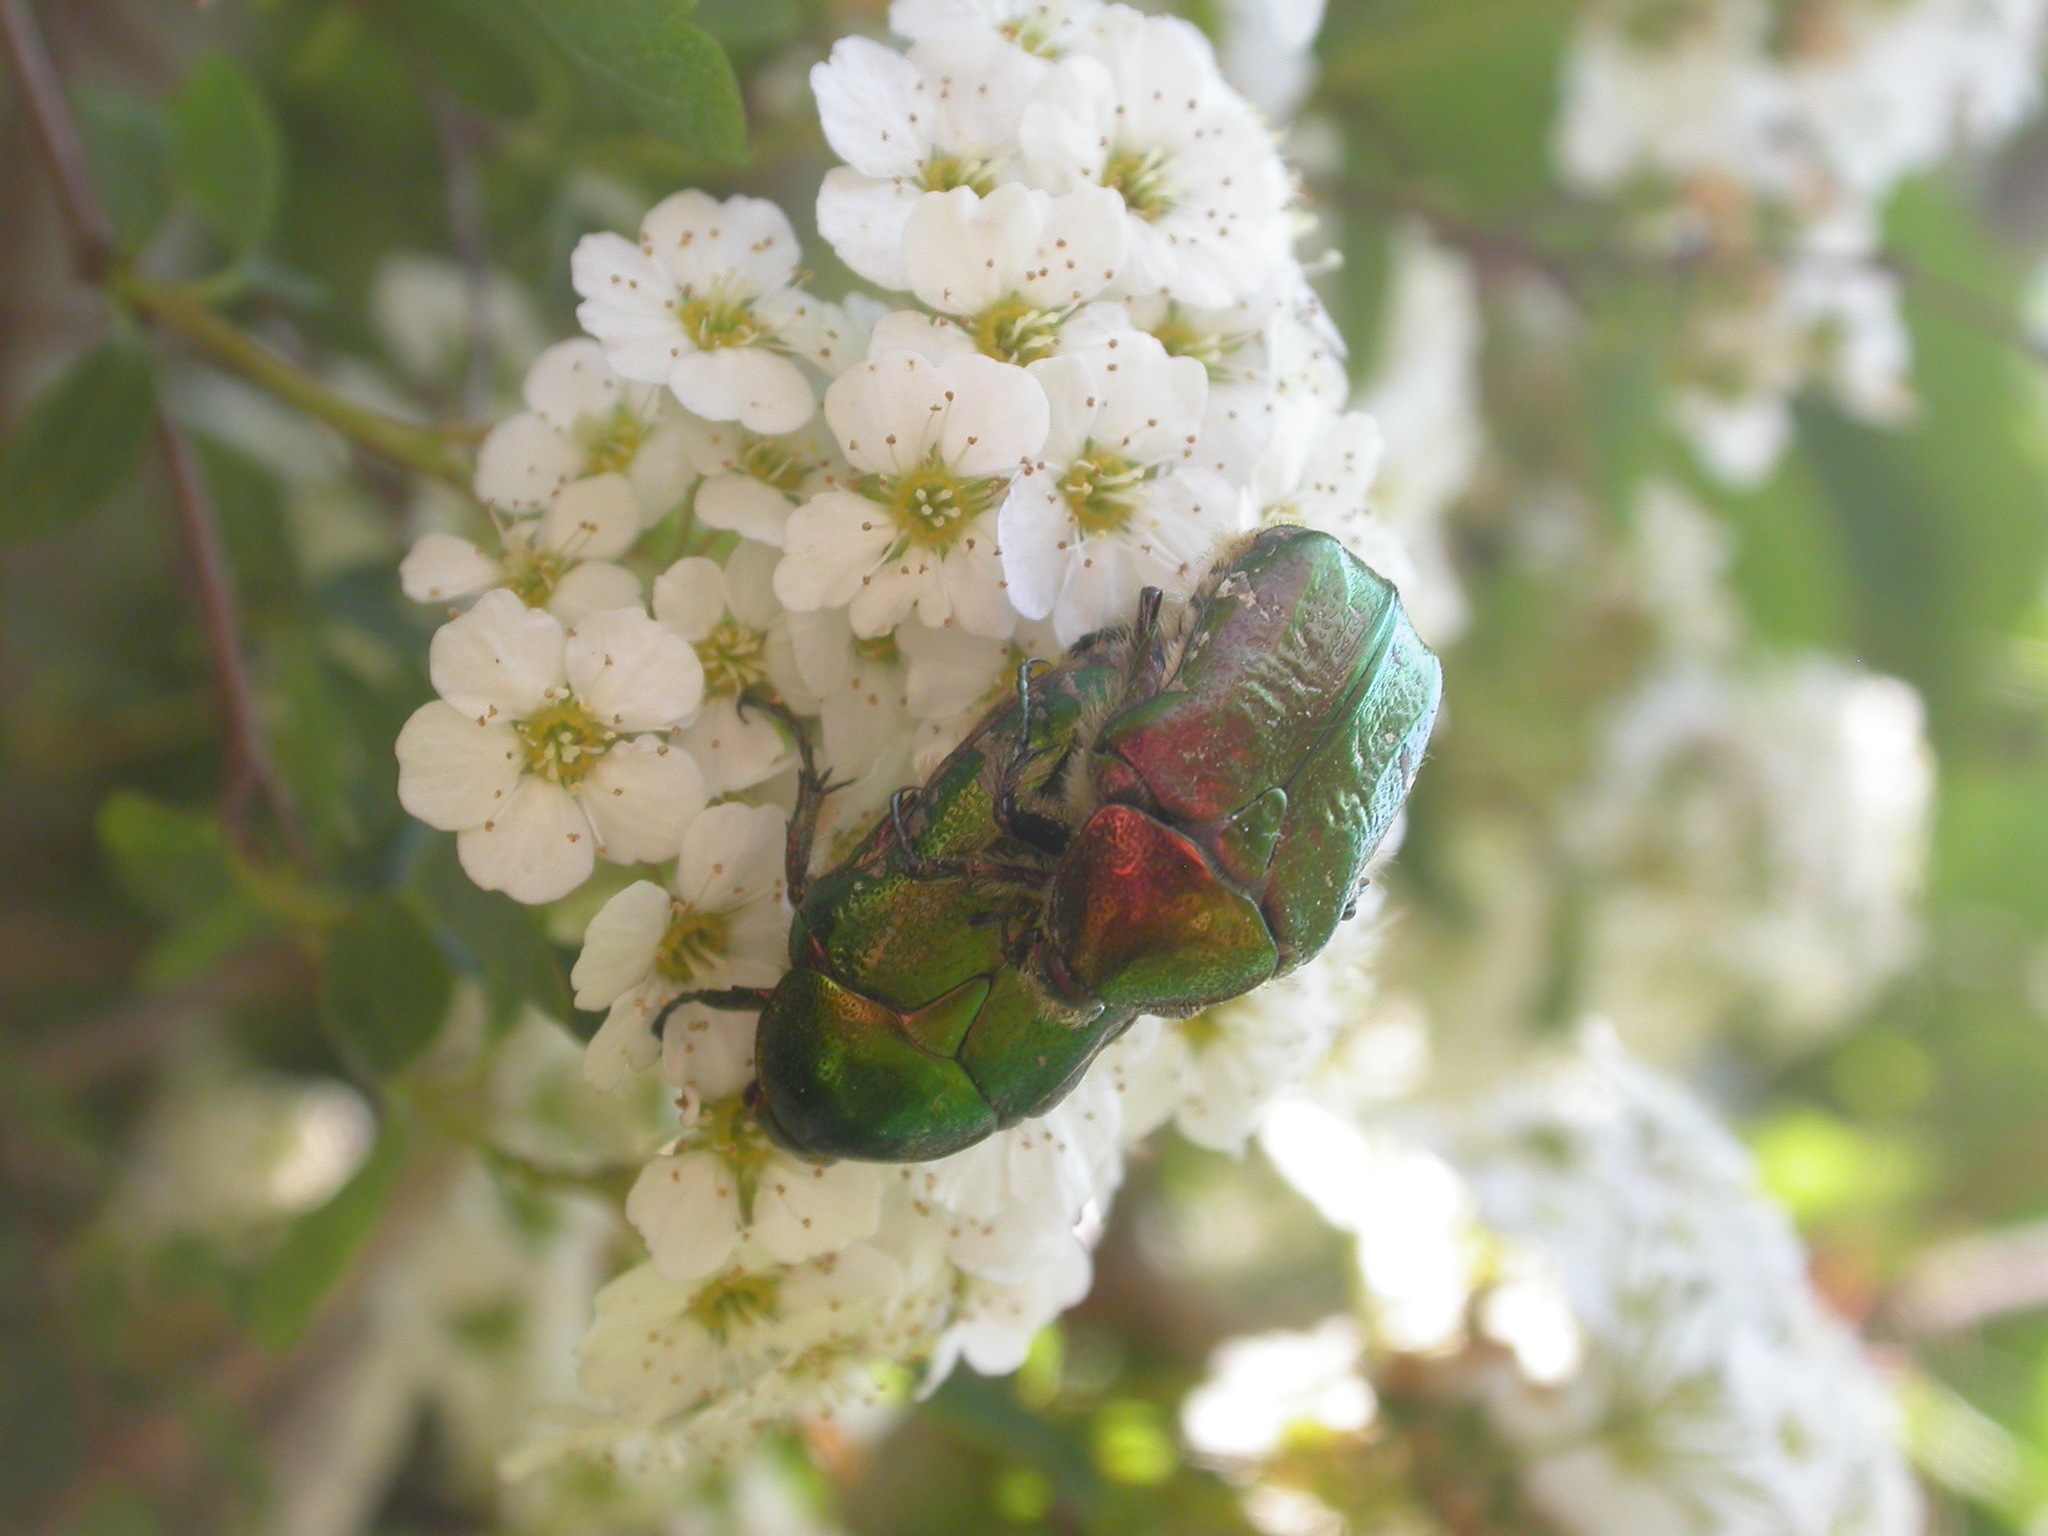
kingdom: Animalia
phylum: Arthropoda
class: Insecta
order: Coleoptera
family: Scarabaeidae
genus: Cetonia
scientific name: Cetonia aurata
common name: Rose chafer
